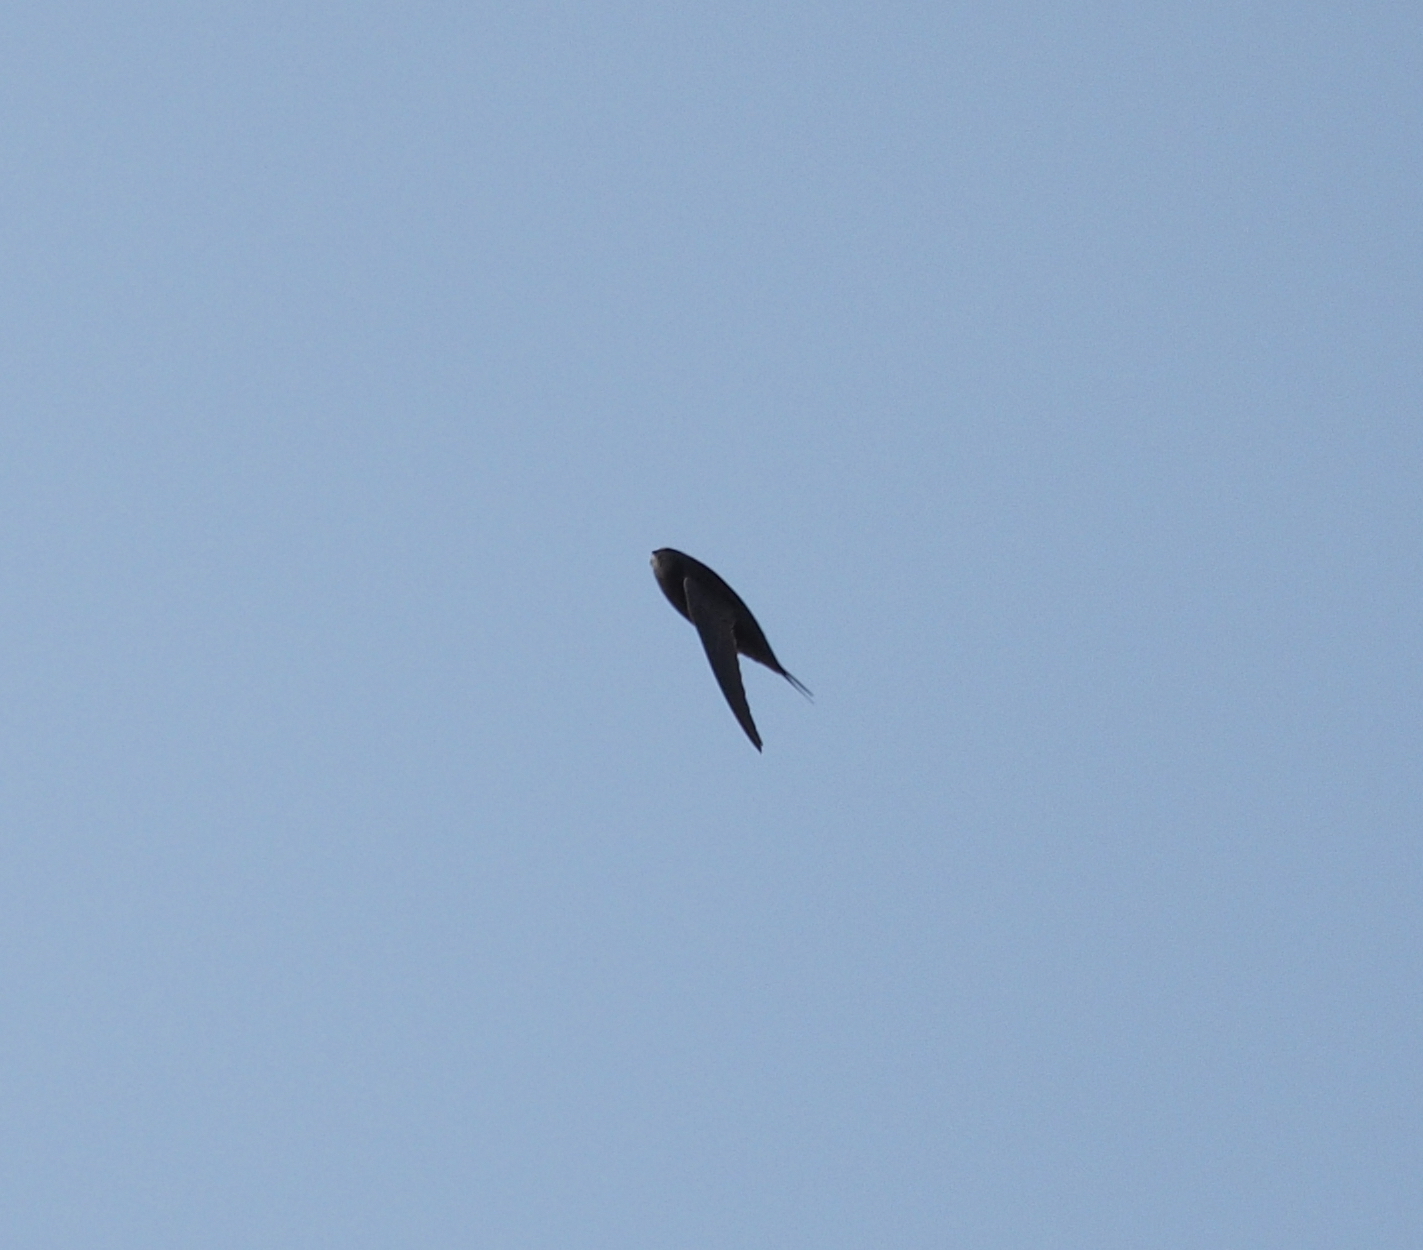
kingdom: Animalia
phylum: Chordata
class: Aves
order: Apodiformes
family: Apodidae
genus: Apus
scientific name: Apus apus
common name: Common swift
